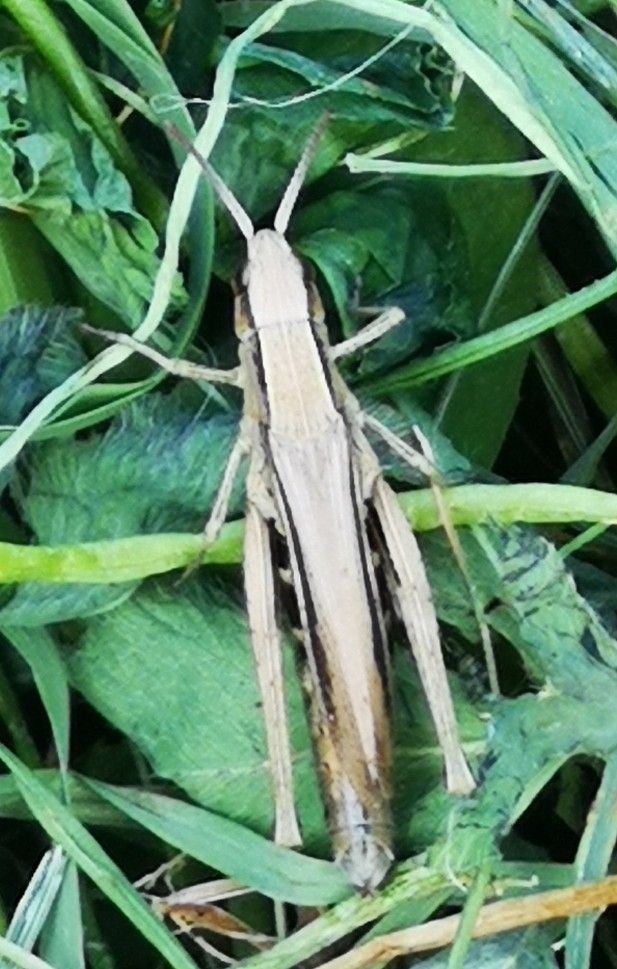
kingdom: Animalia
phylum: Arthropoda
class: Insecta
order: Orthoptera
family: Acrididae
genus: Chorthippus
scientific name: Chorthippus albomarginatus
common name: Lesser marsh grasshopper
